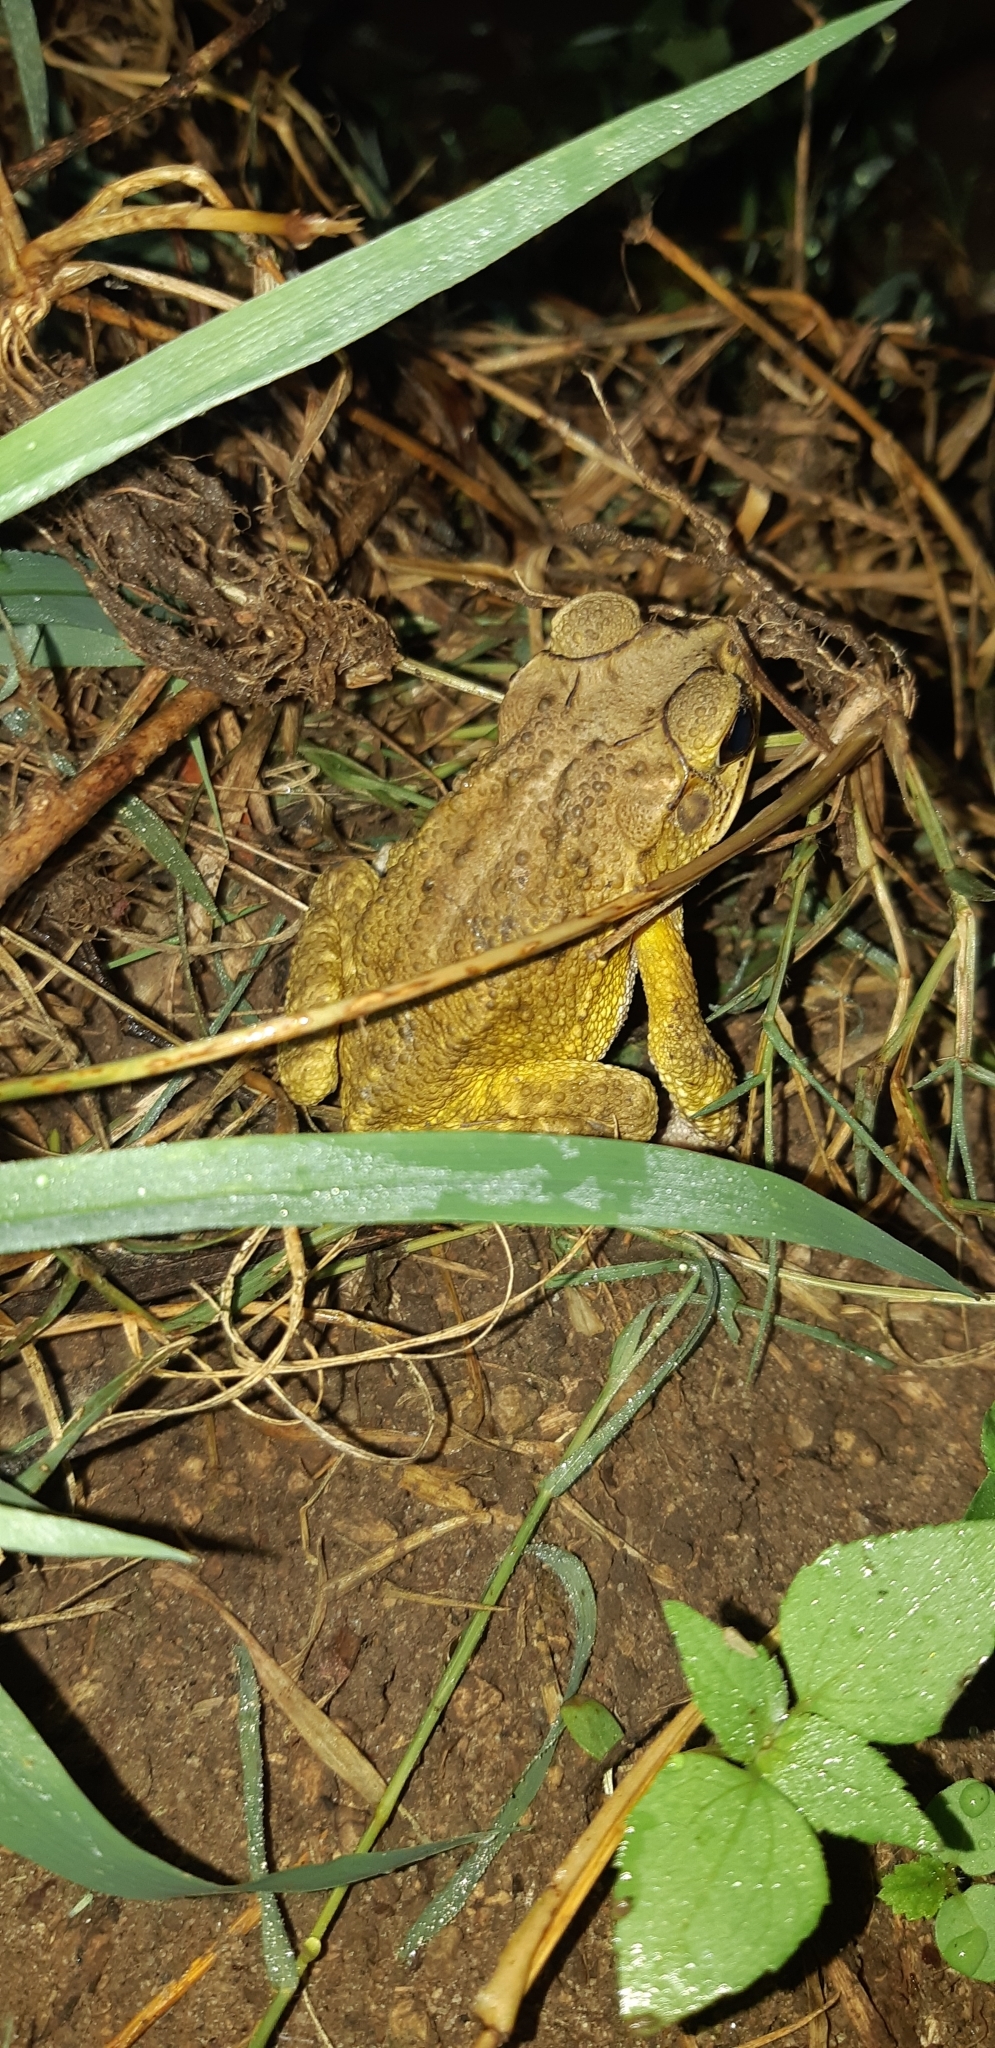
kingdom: Animalia
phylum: Chordata
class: Amphibia
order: Anura
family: Bufonidae
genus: Incilius
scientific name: Incilius luetkenii
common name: Yellow toad
